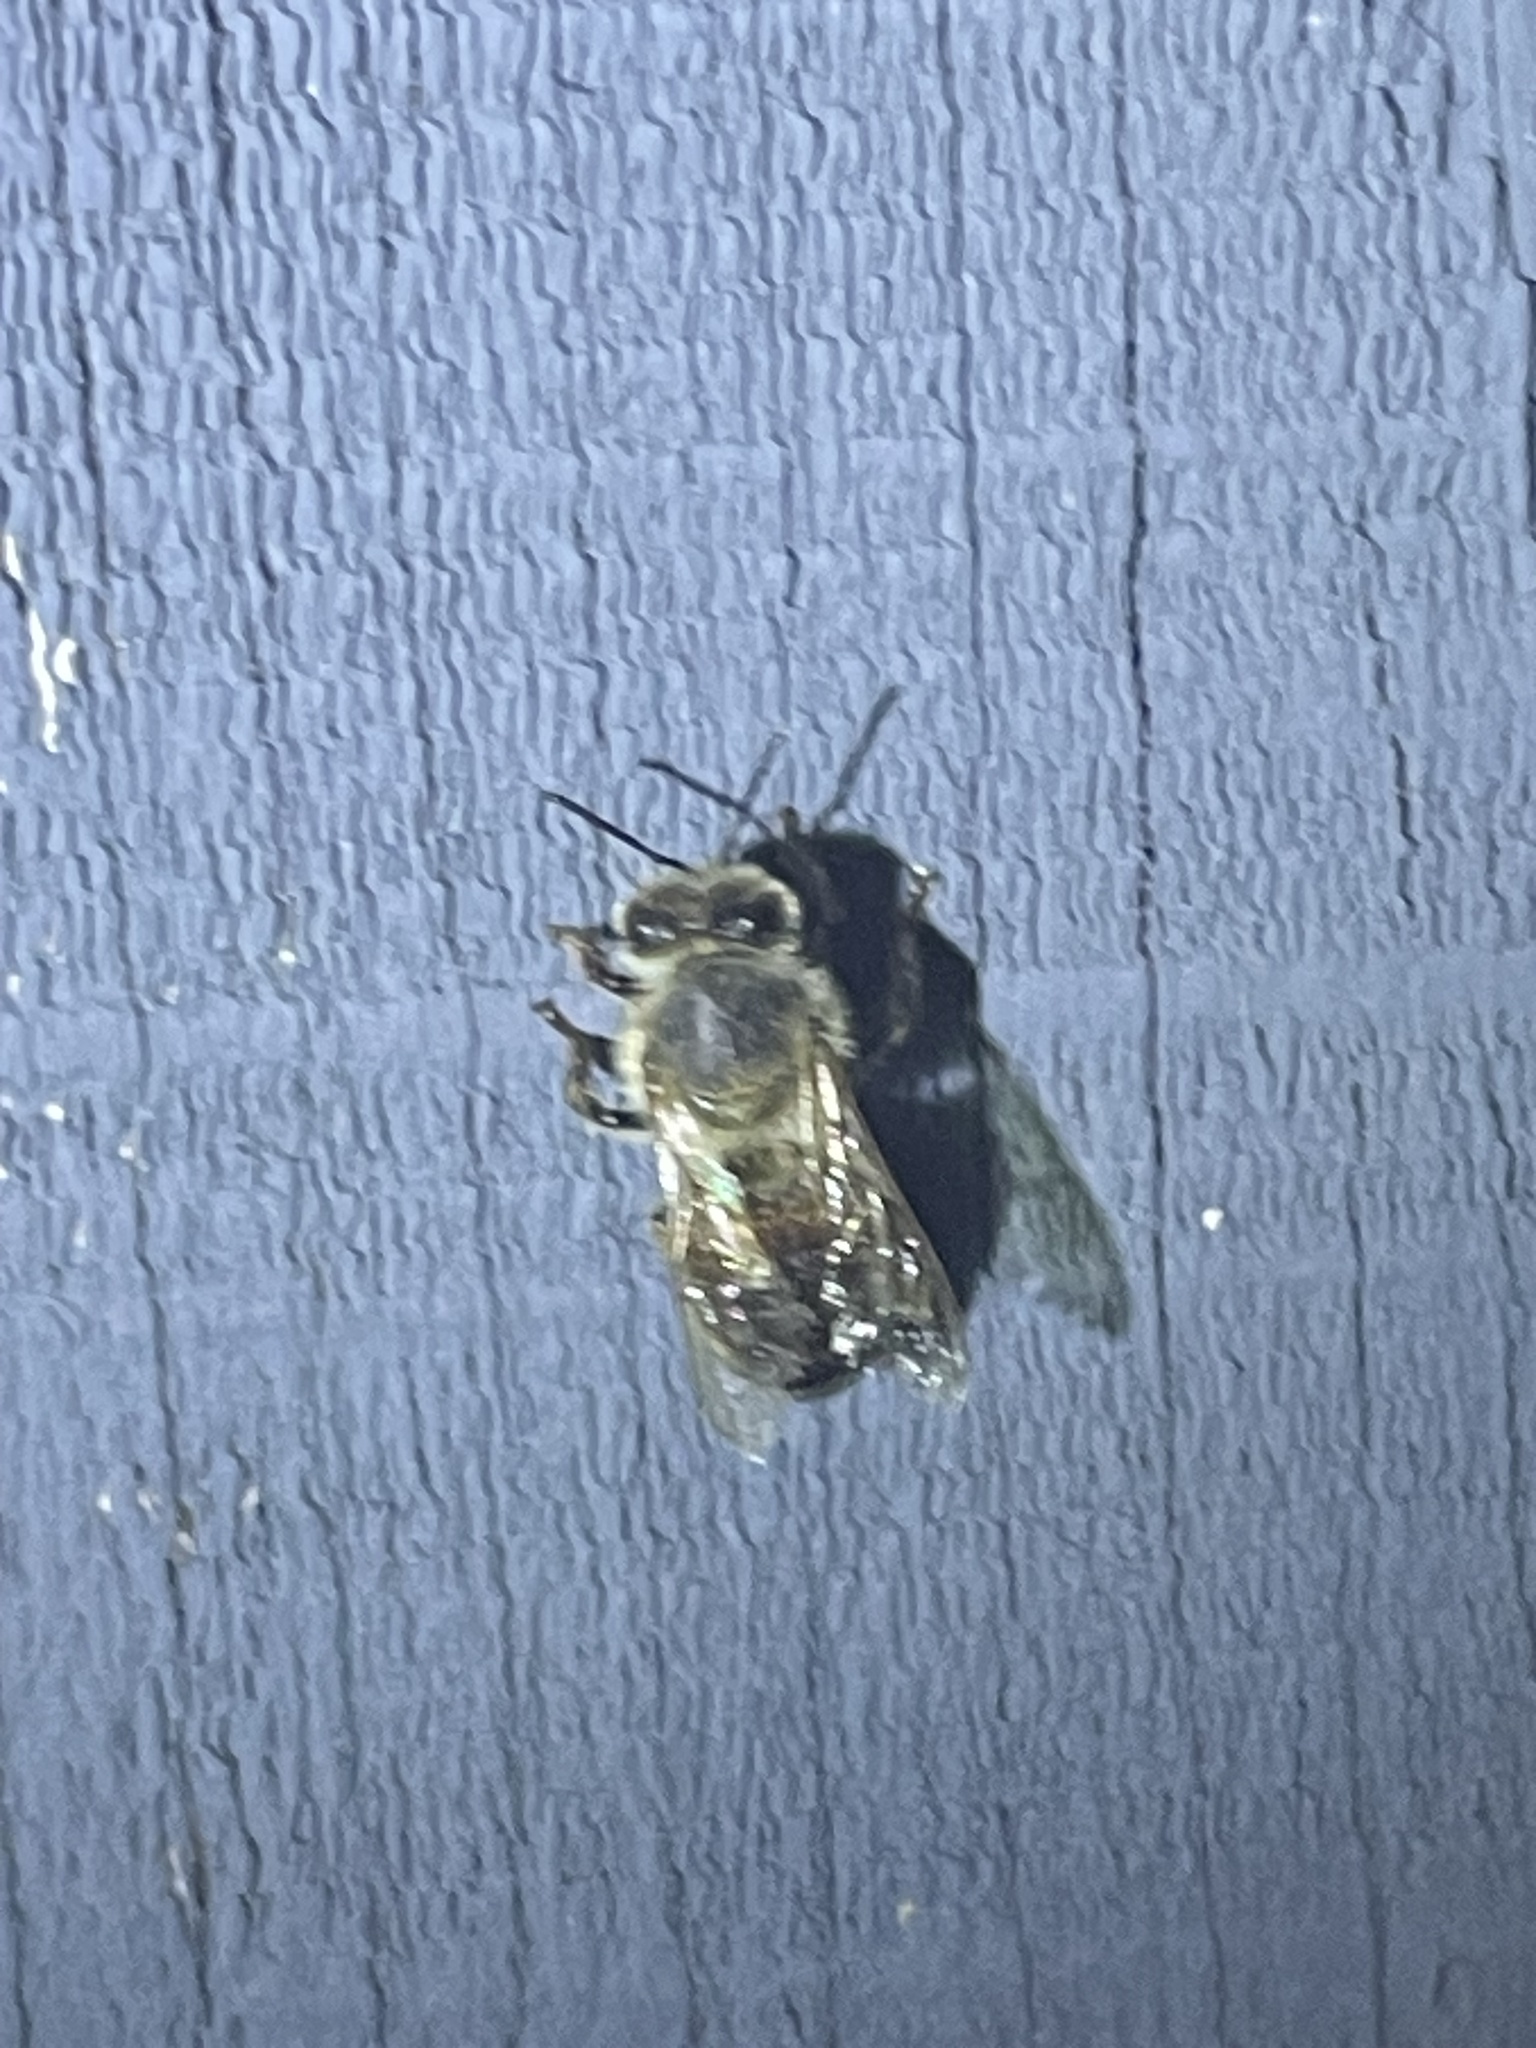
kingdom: Animalia
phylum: Arthropoda
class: Insecta
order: Hymenoptera
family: Apidae
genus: Apis
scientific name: Apis mellifera
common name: Honey bee
